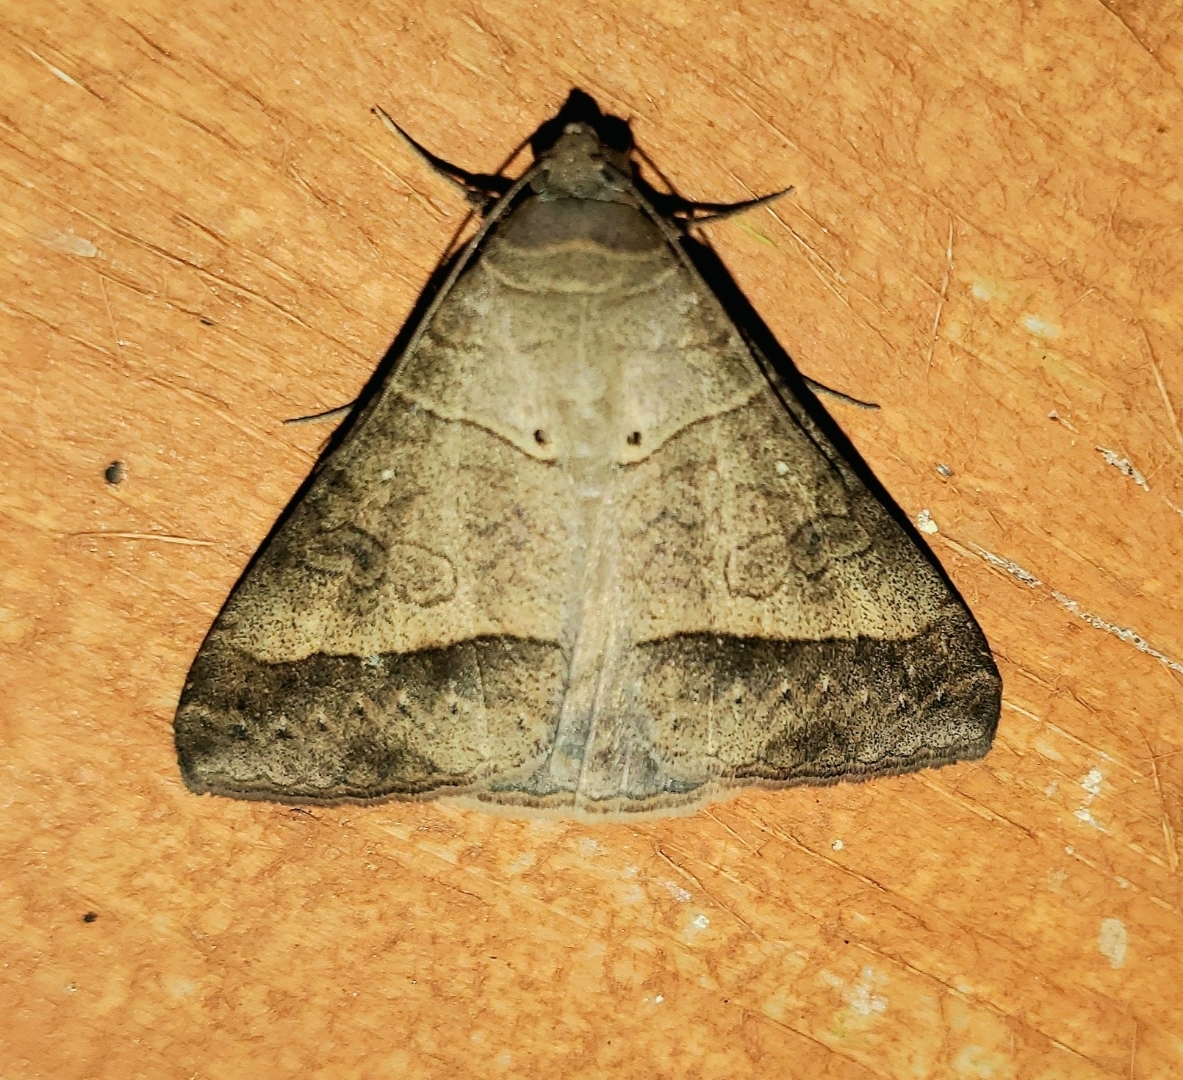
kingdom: Animalia
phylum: Arthropoda
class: Insecta
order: Lepidoptera
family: Erebidae
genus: Mocis
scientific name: Mocis latipes
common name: Striped grass looper
